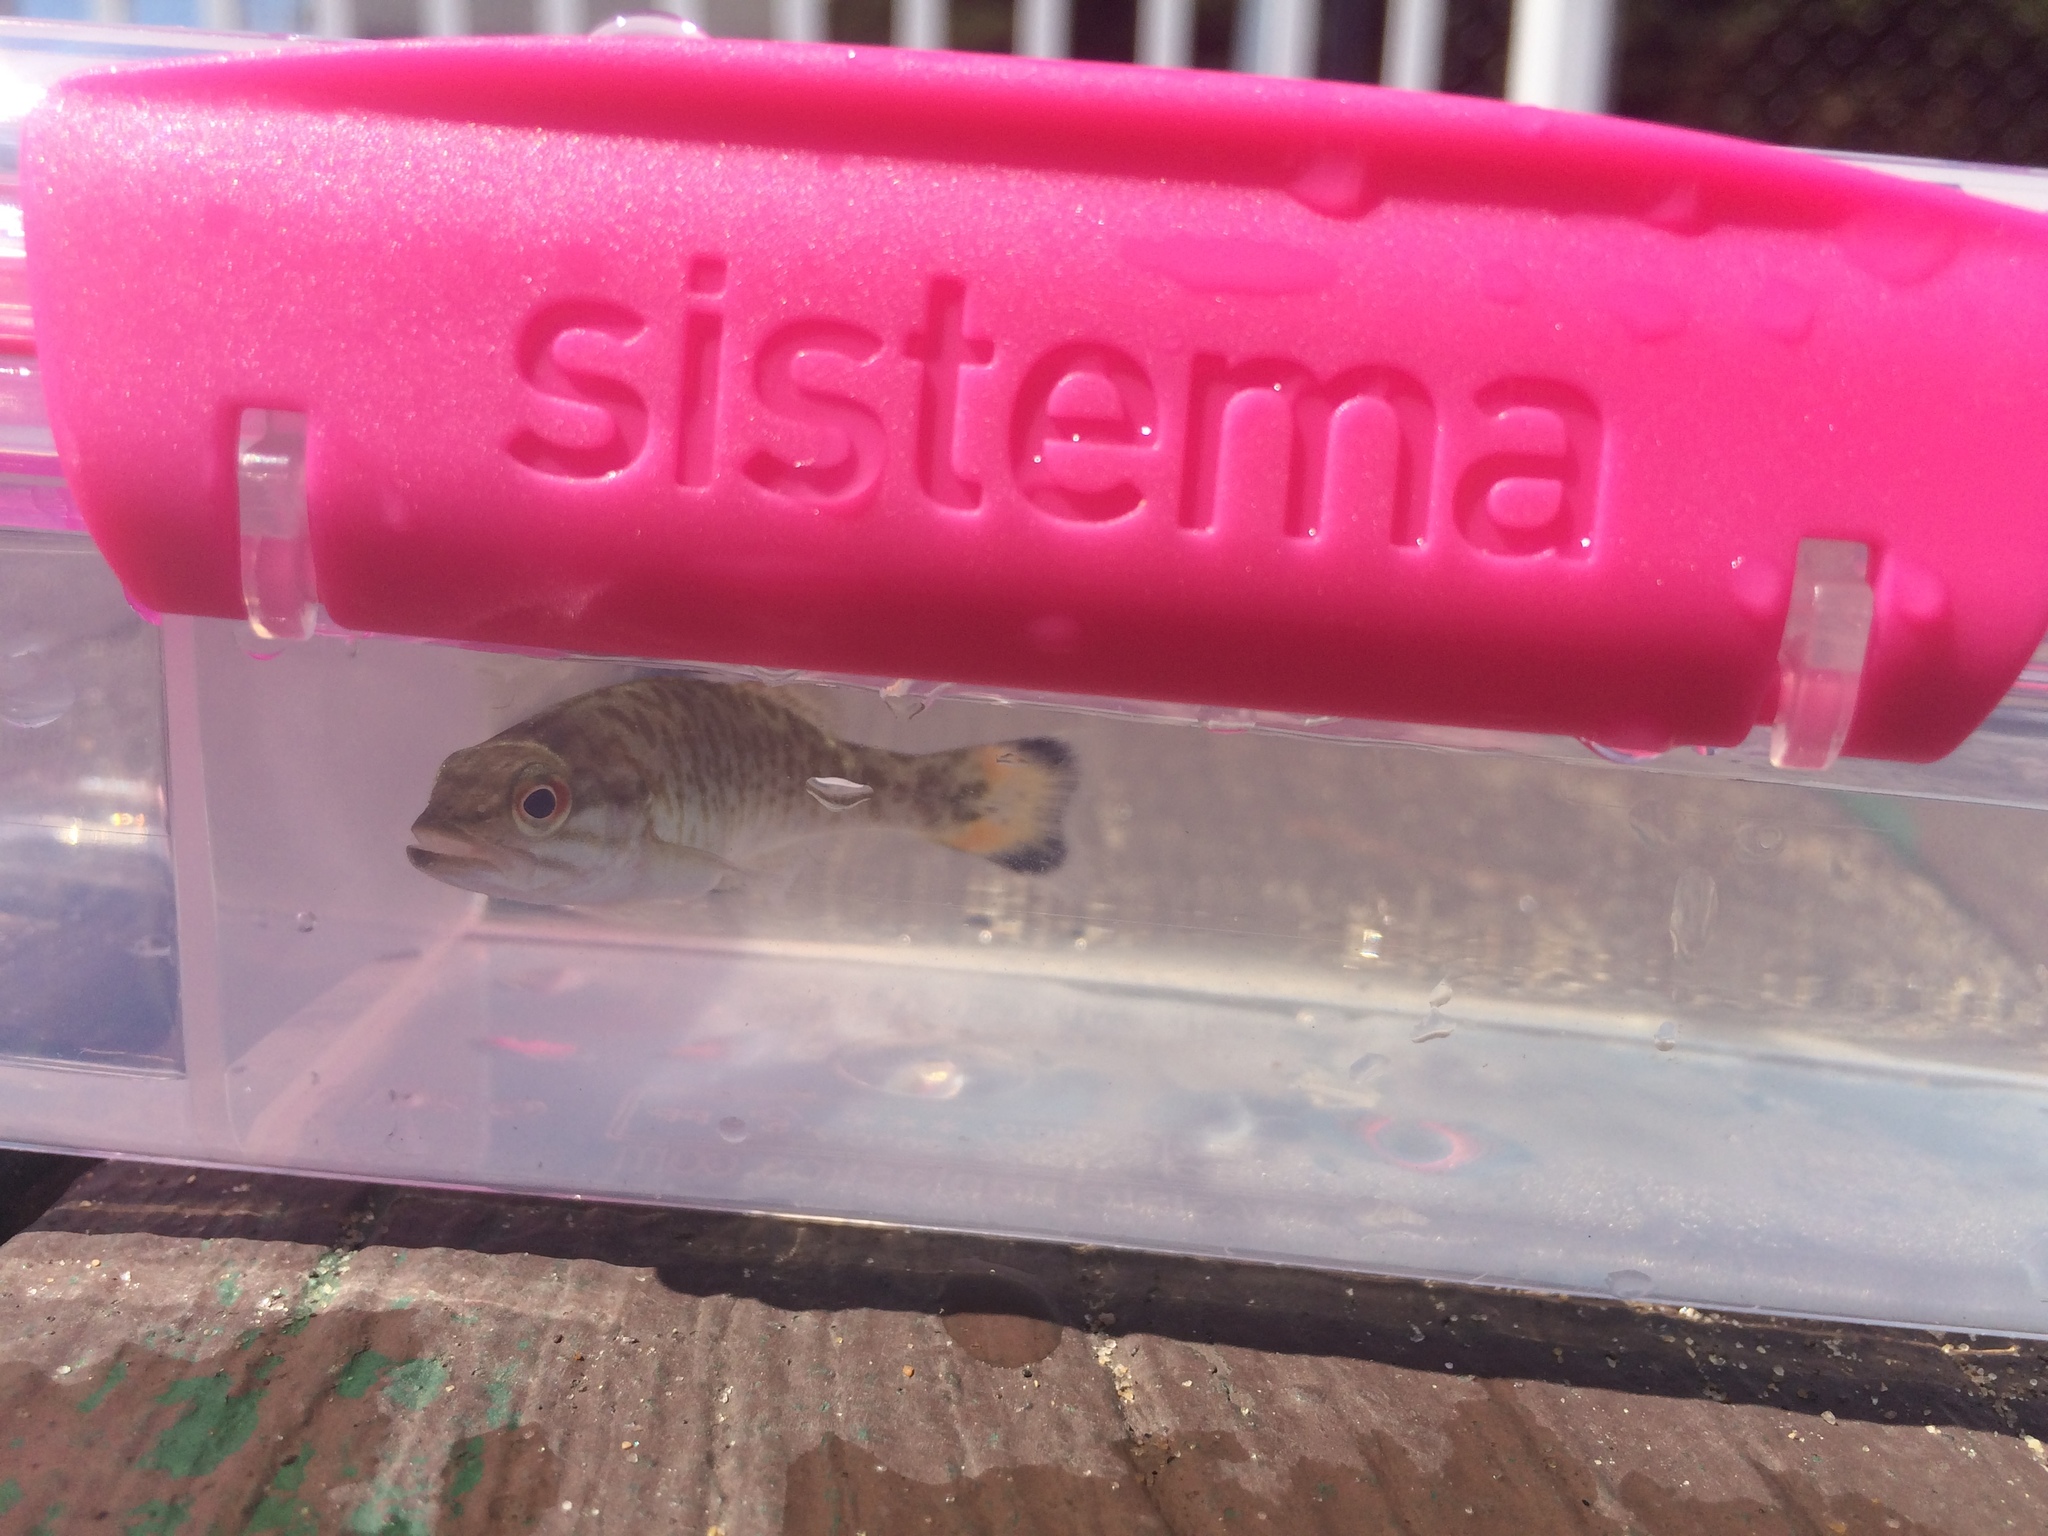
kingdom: Animalia
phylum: Chordata
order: Perciformes
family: Centrarchidae
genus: Micropterus
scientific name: Micropterus dolomieu
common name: Smallmouth bass
